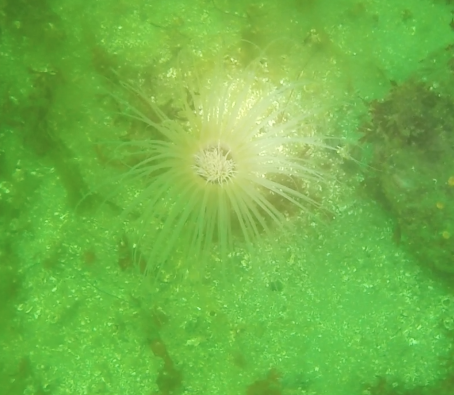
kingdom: Animalia
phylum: Cnidaria
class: Anthozoa
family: Cerianthidae
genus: Pachycerianthus
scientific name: Pachycerianthus fimbriatus
